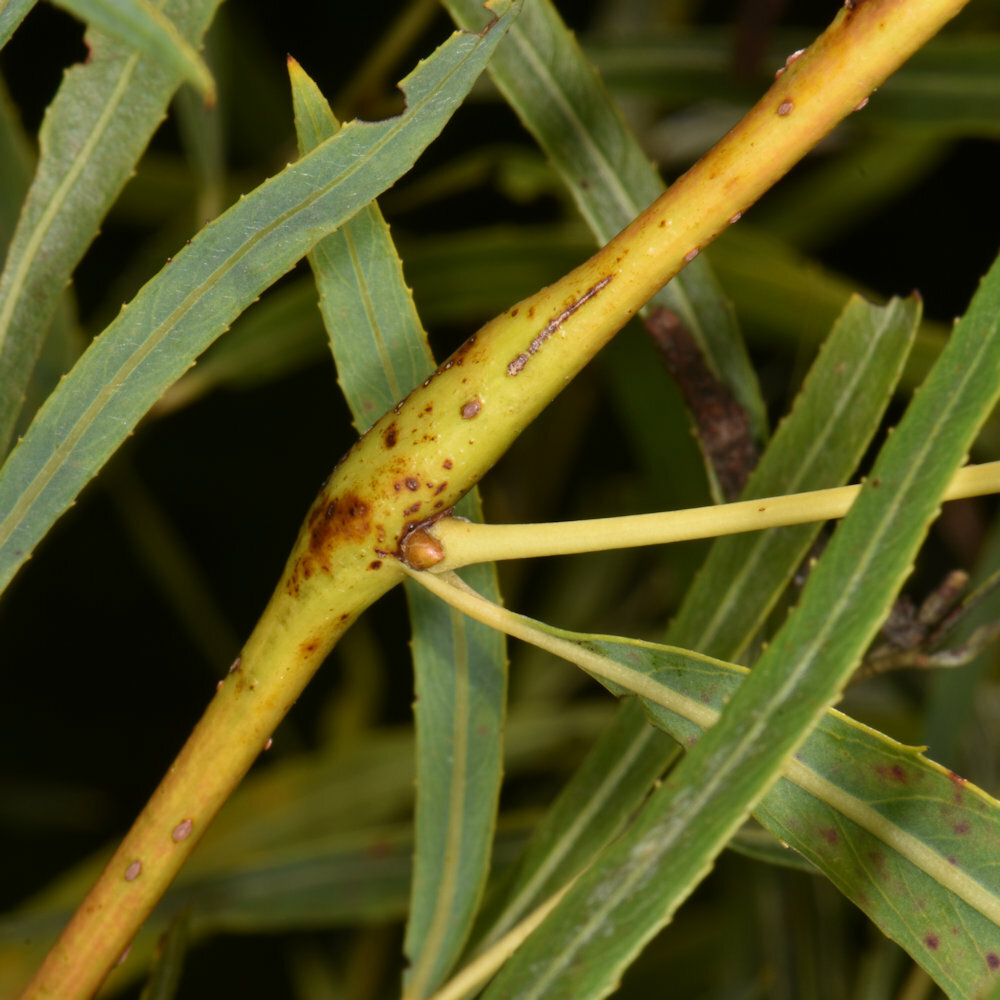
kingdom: Animalia
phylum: Arthropoda
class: Insecta
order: Hymenoptera
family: Tenthredinidae
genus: Euura
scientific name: Euura
